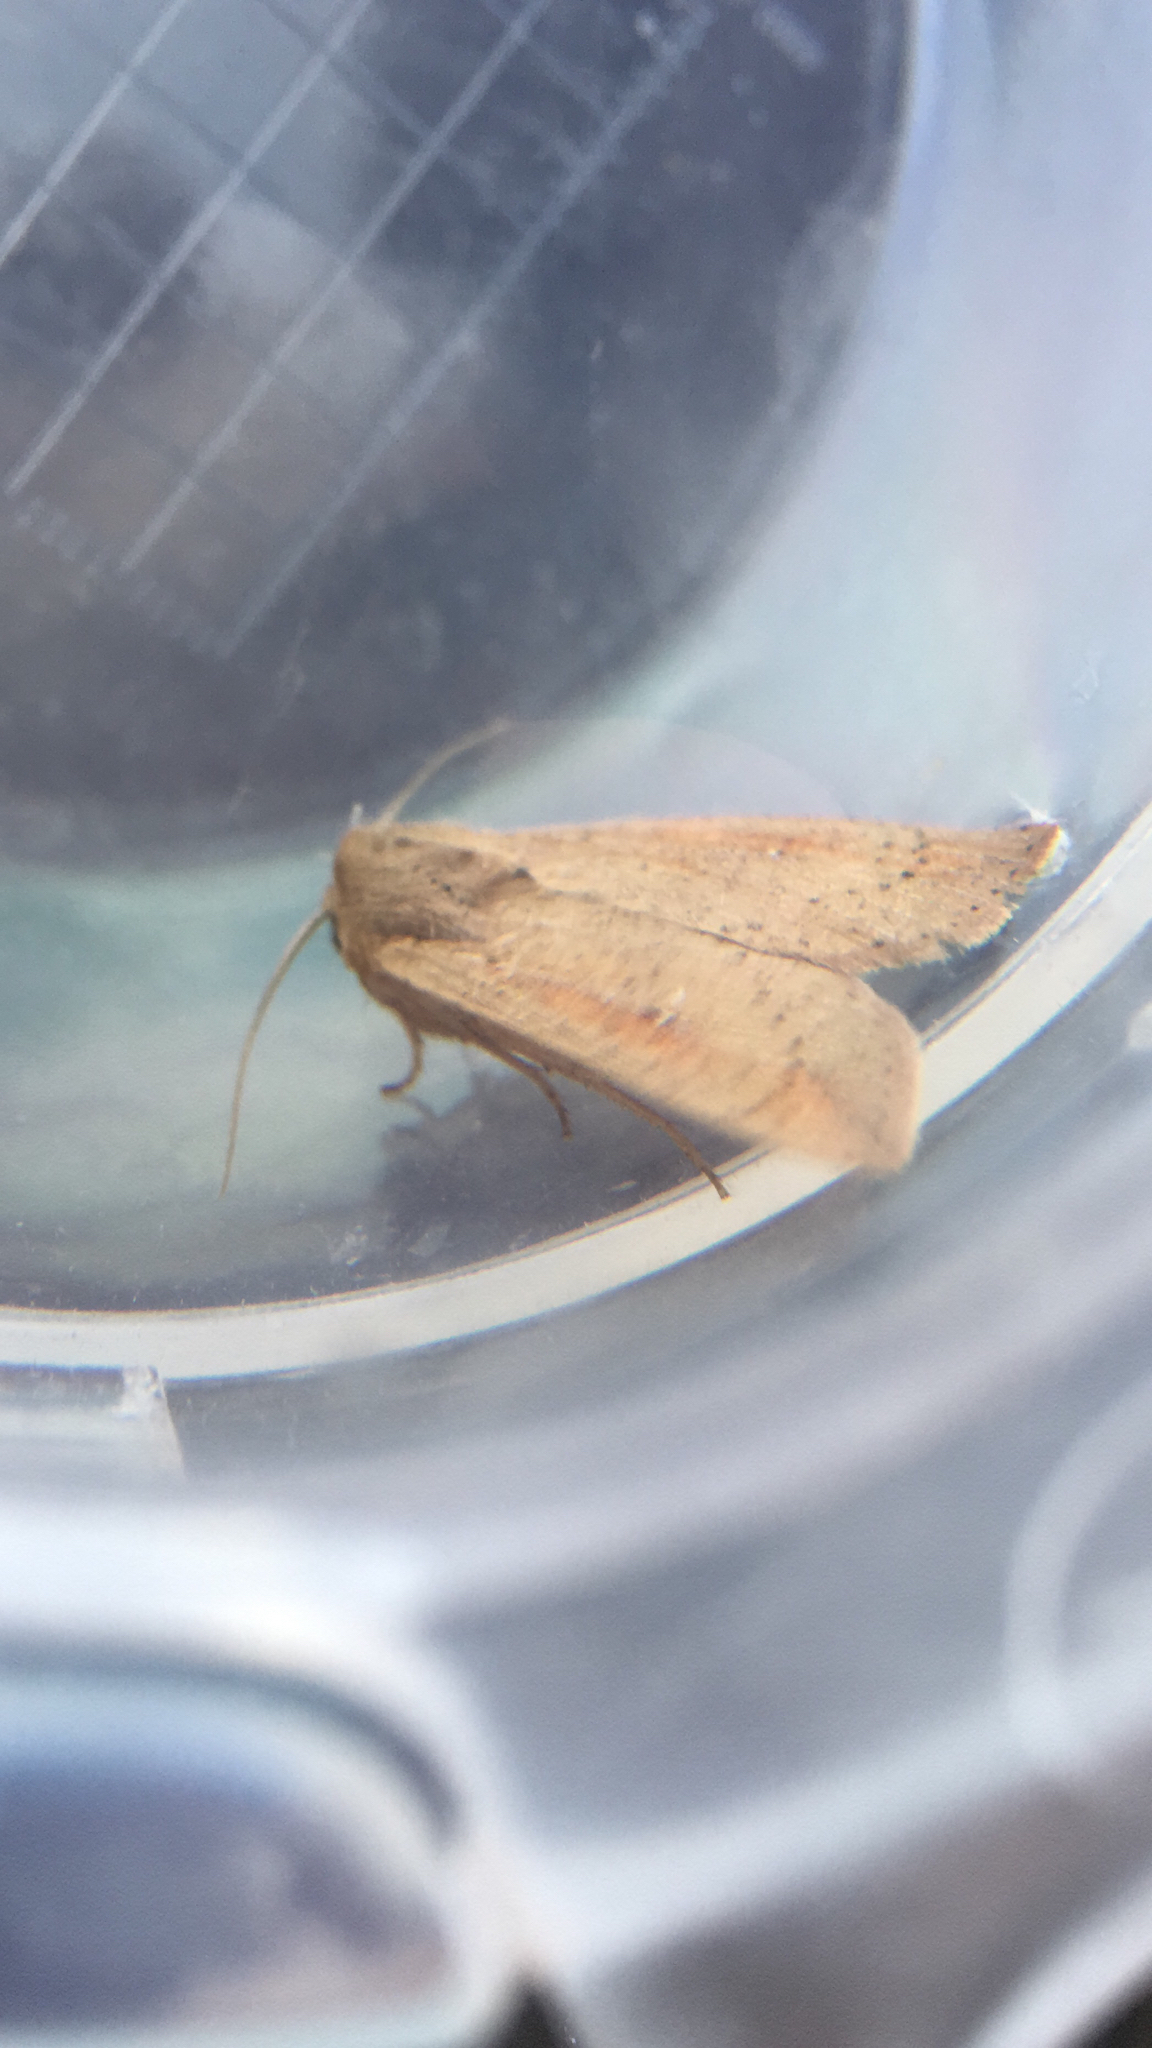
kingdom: Animalia
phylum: Arthropoda
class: Insecta
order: Lepidoptera
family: Noctuidae
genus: Mythimna
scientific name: Mythimna unipuncta
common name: White-speck
